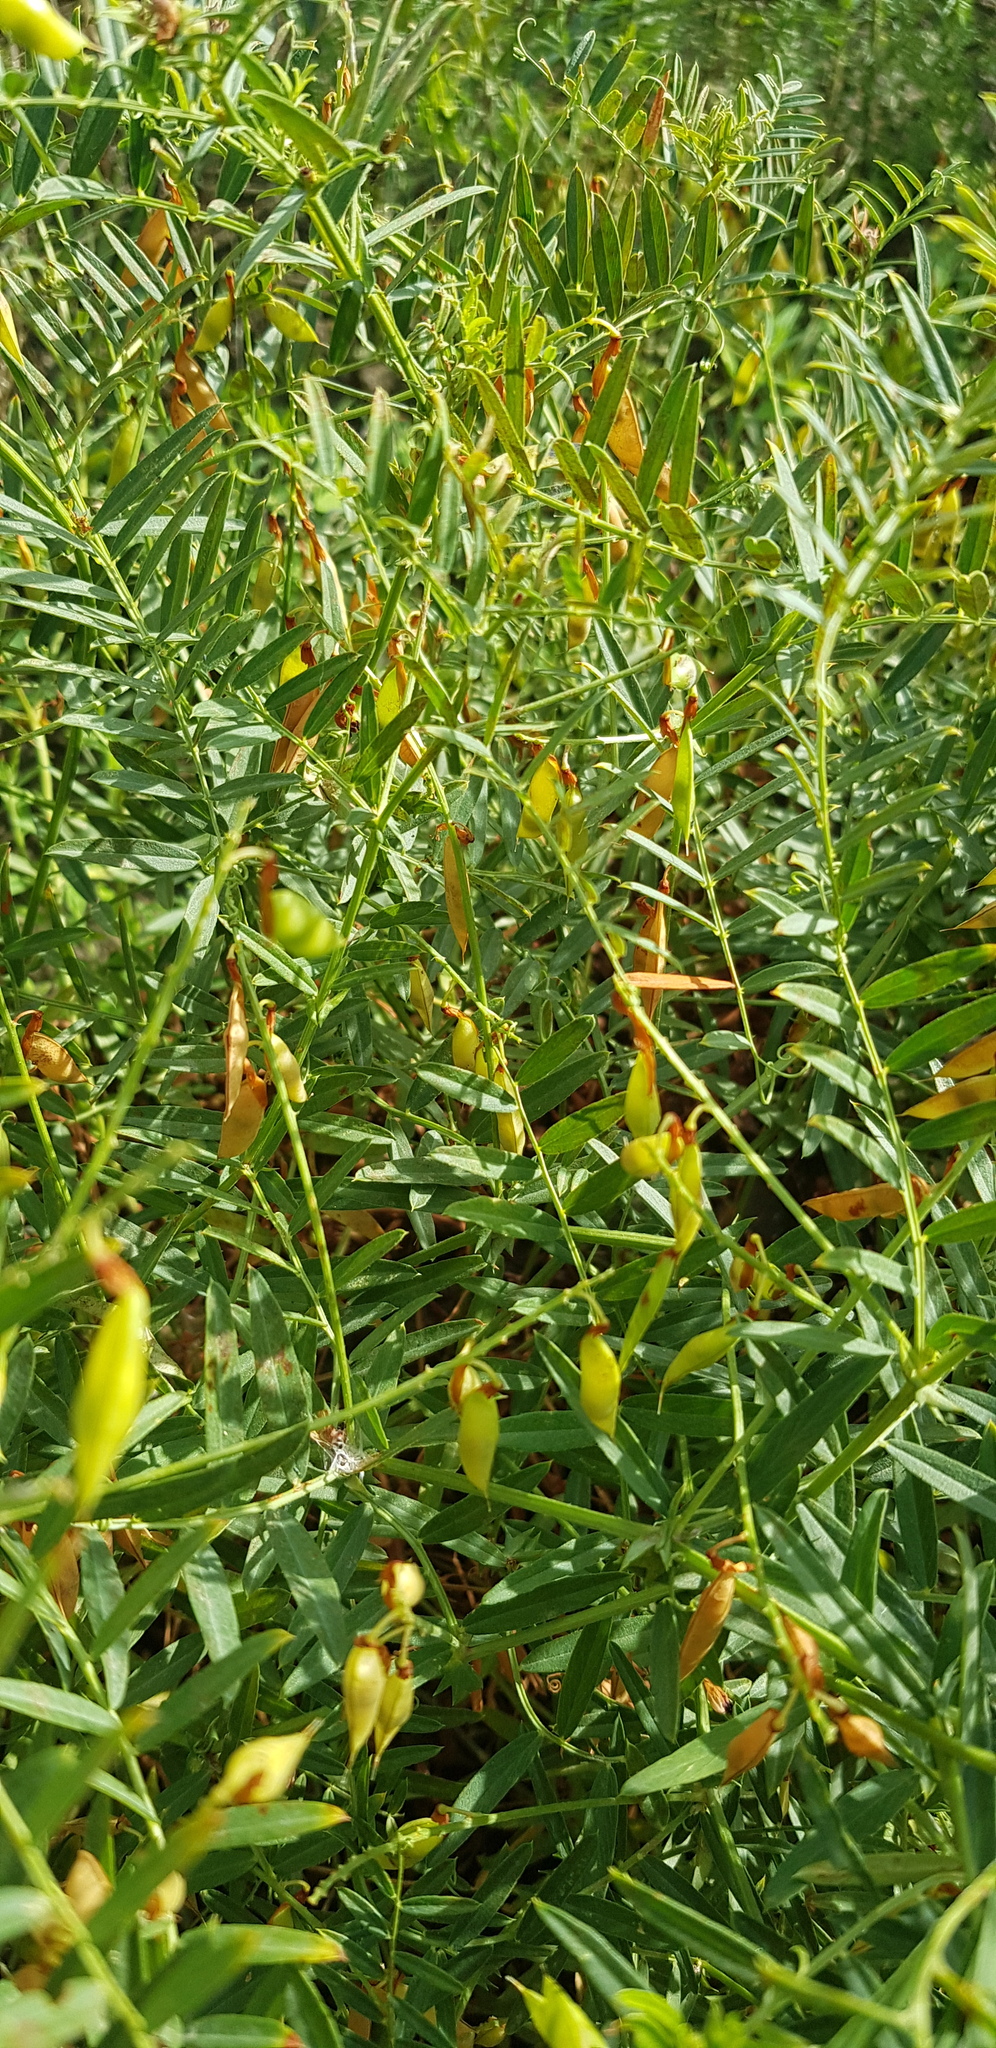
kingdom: Plantae
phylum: Tracheophyta
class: Magnoliopsida
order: Fabales
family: Fabaceae
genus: Vicia
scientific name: Vicia amoena
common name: Cheder ebs
